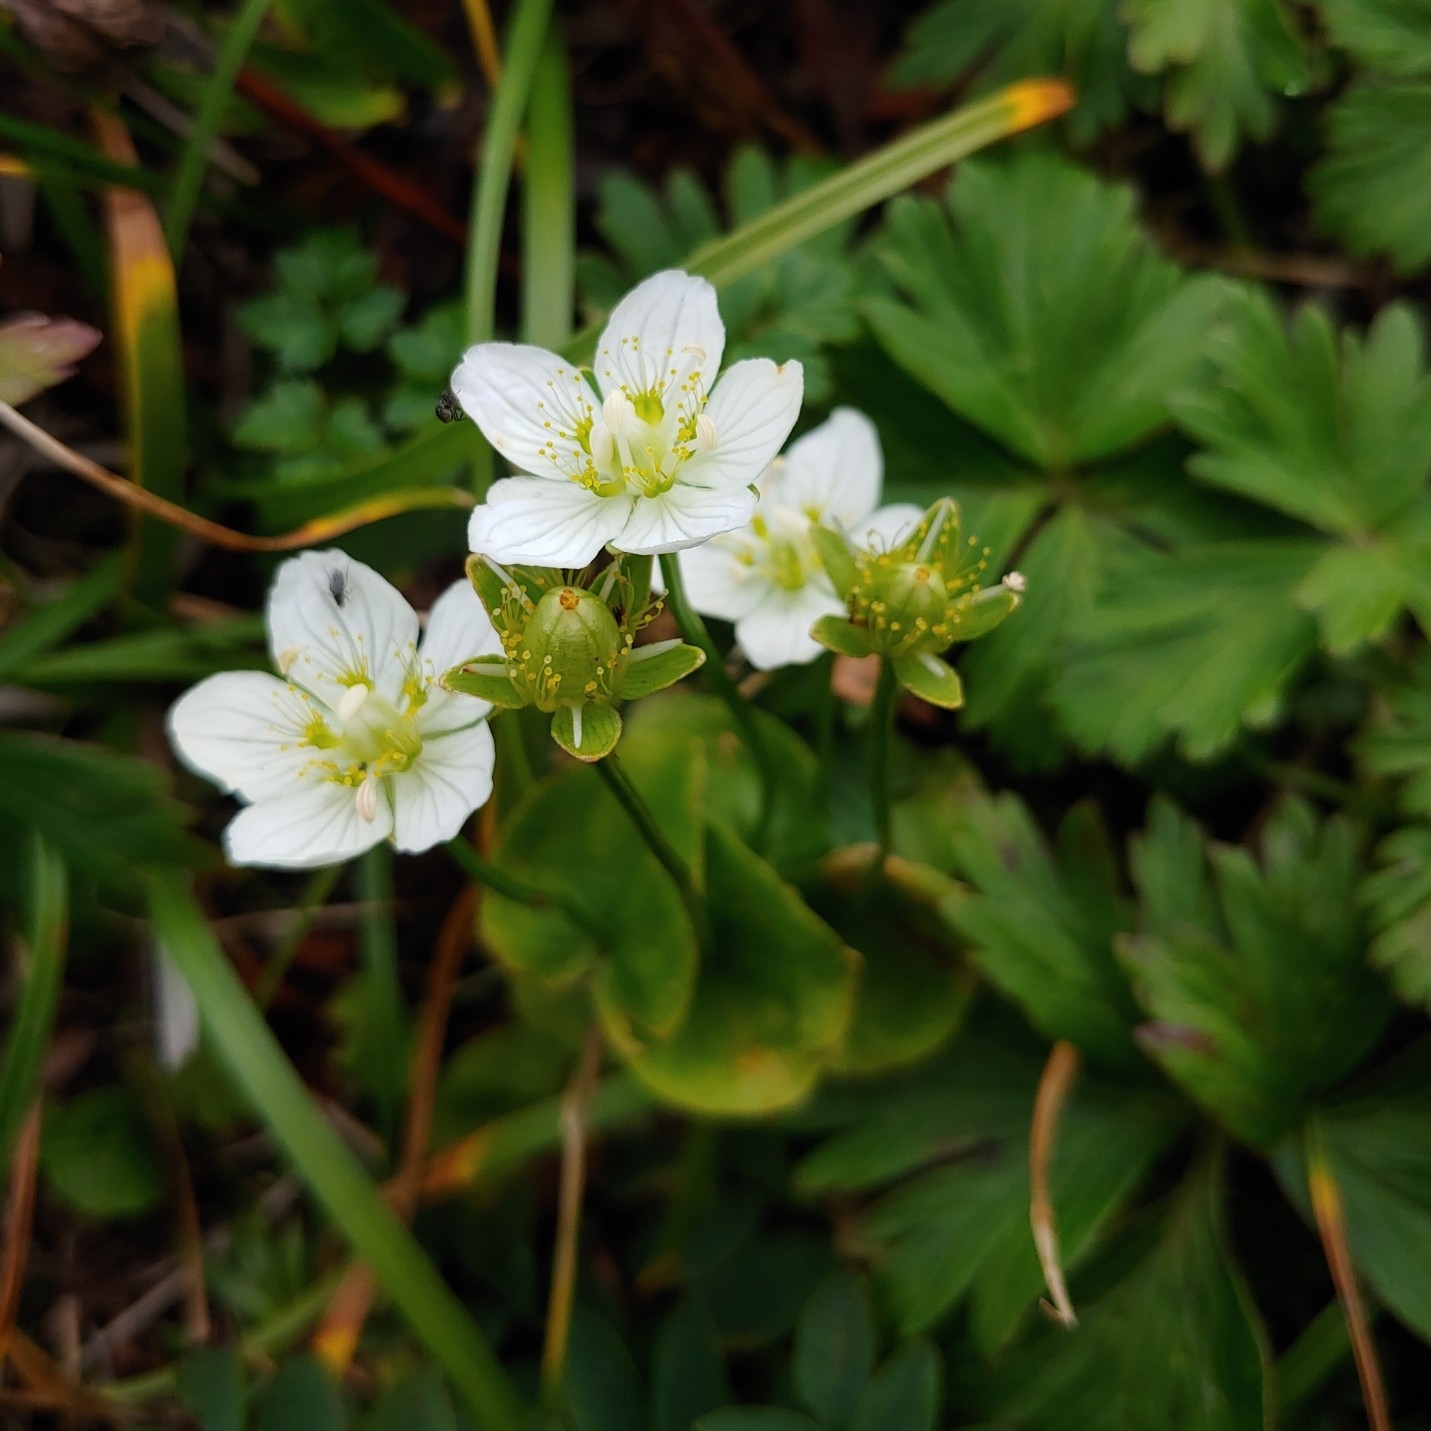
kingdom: Plantae
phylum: Tracheophyta
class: Magnoliopsida
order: Celastrales
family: Parnassiaceae
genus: Parnassia
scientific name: Parnassia palustris
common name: Grass-of-parnassus
